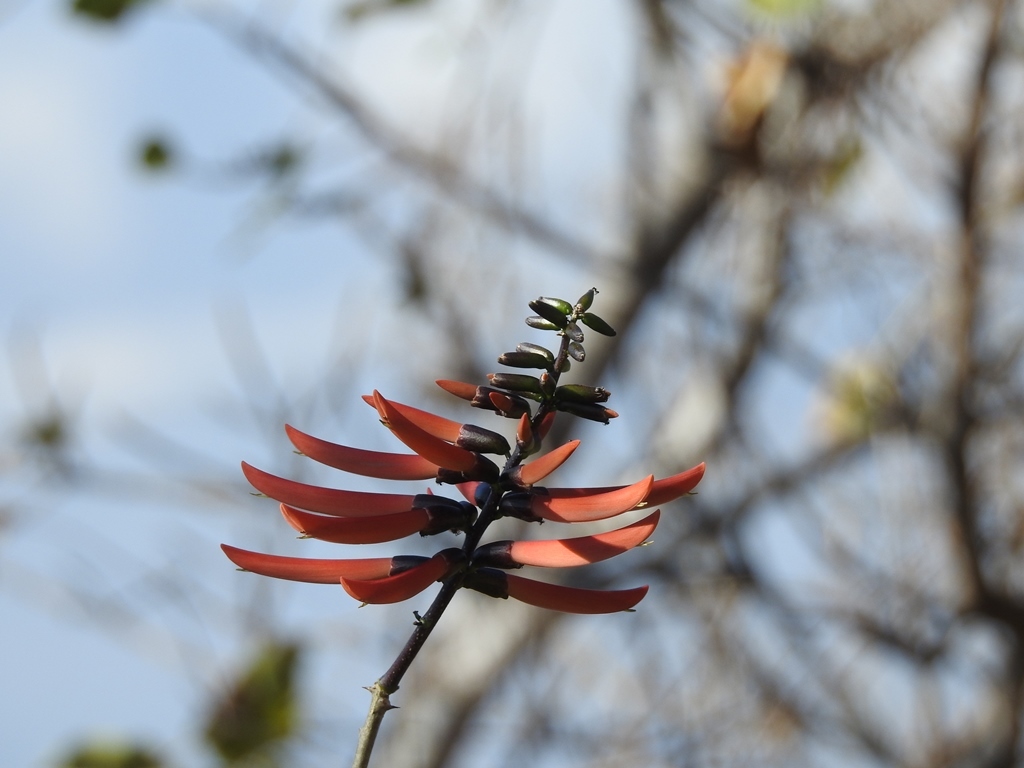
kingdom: Plantae
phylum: Tracheophyta
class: Magnoliopsida
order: Fabales
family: Fabaceae
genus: Erythrina
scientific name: Erythrina goldmanii
